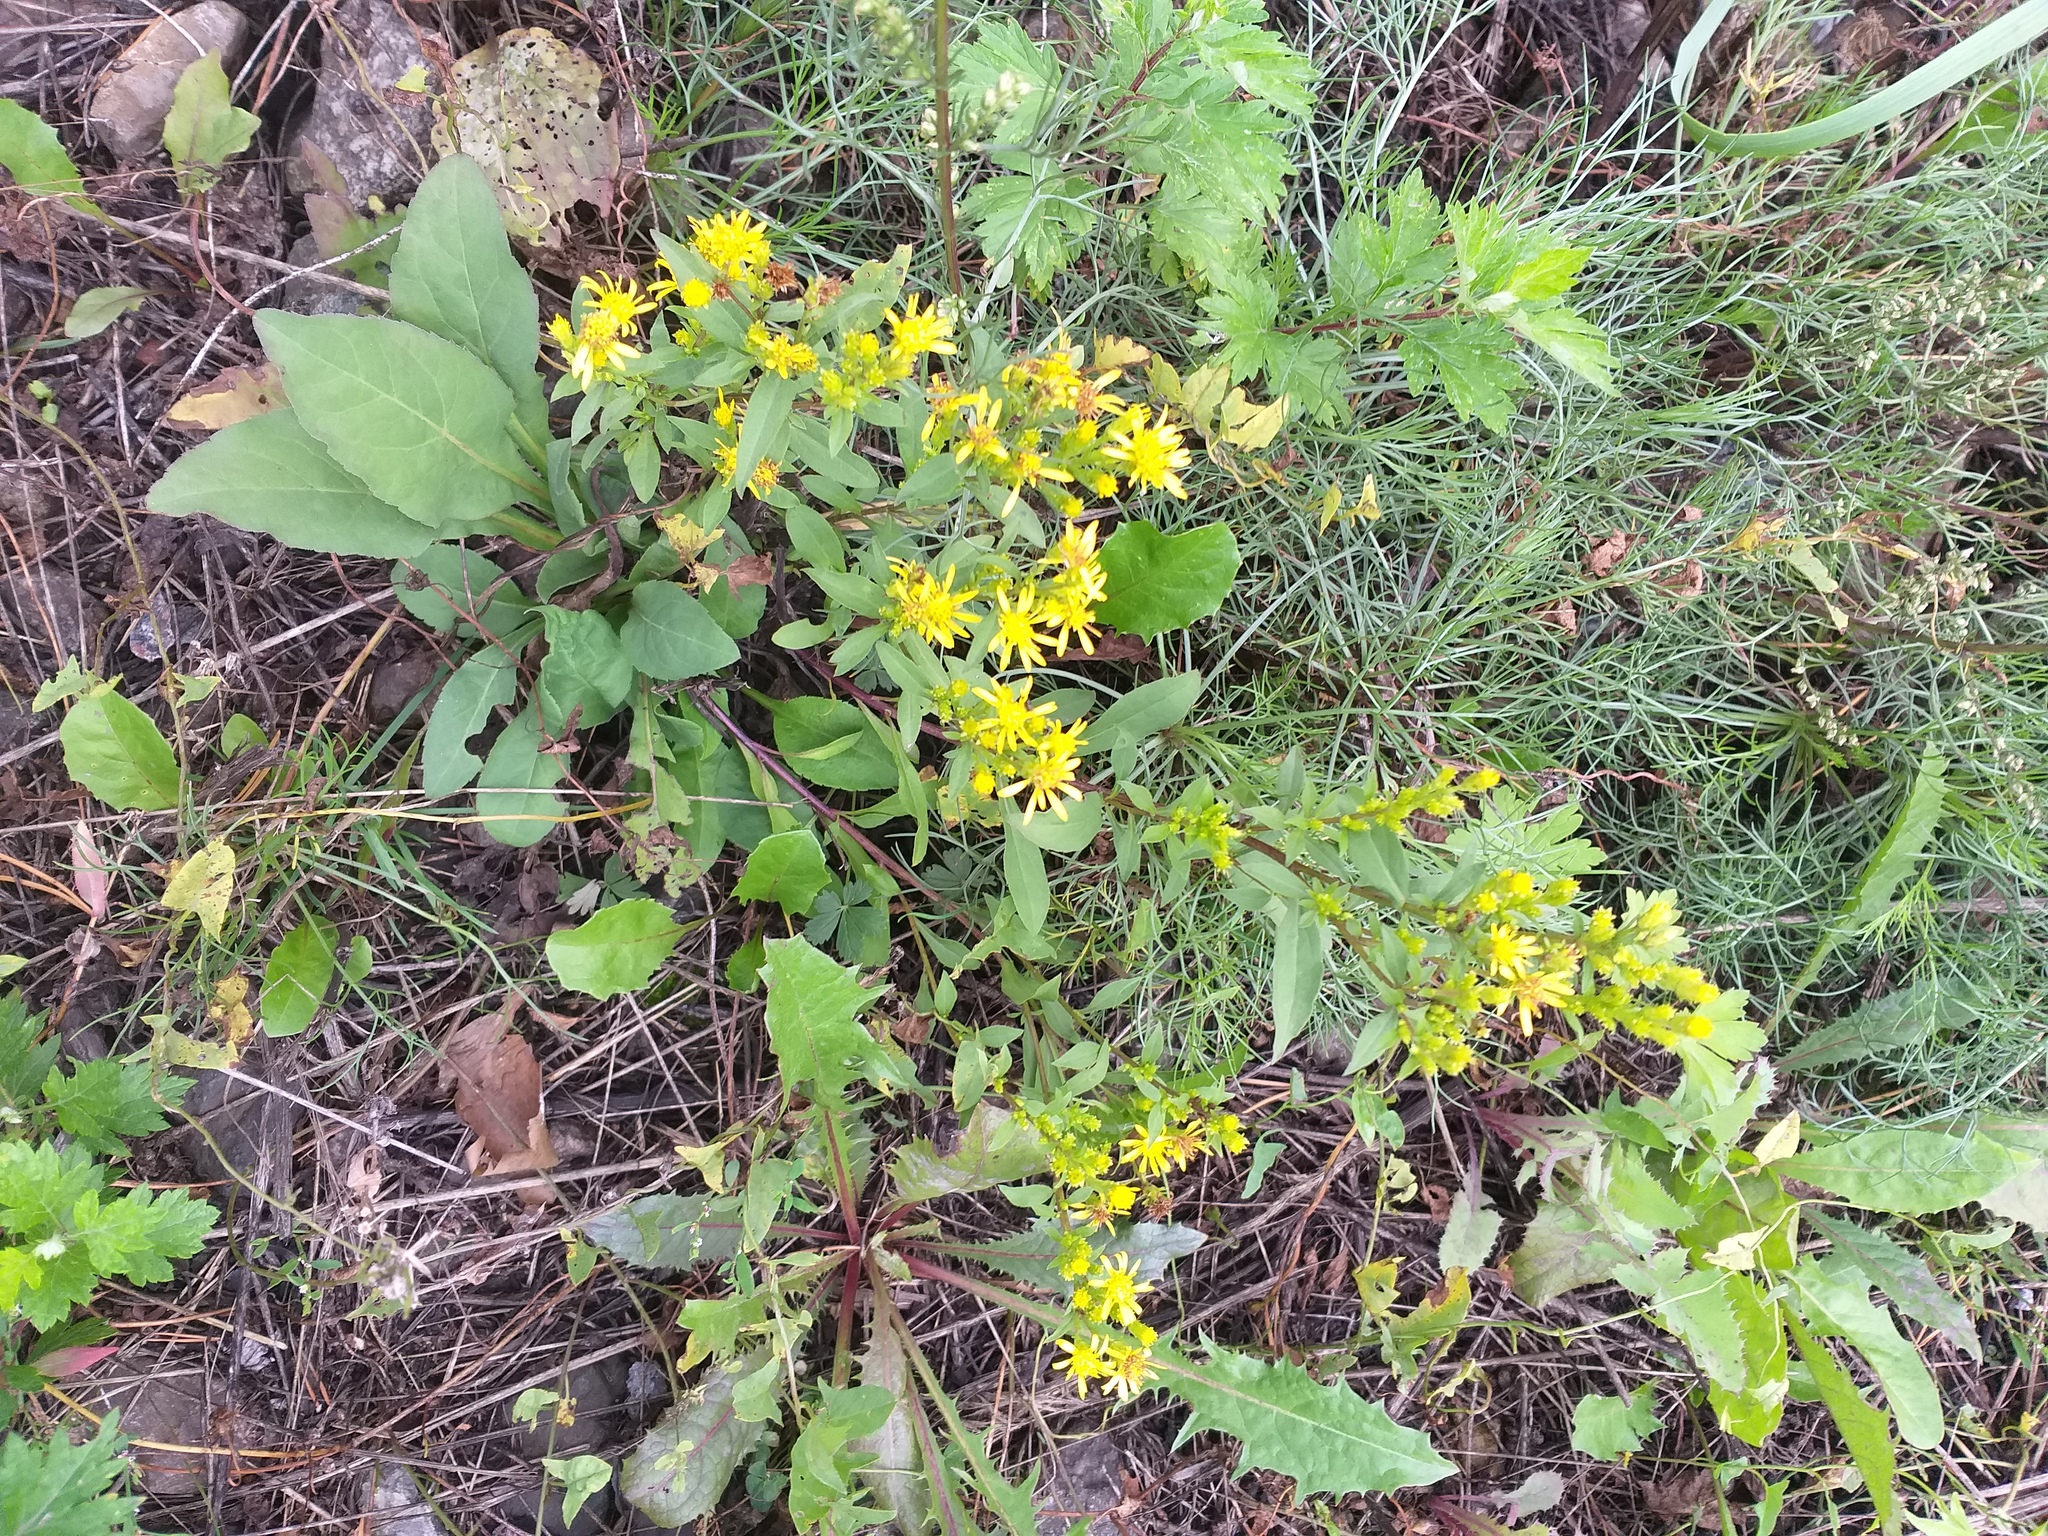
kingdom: Plantae
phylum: Tracheophyta
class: Magnoliopsida
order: Asterales
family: Asteraceae
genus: Solidago
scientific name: Solidago virgaurea
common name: Goldenrod
